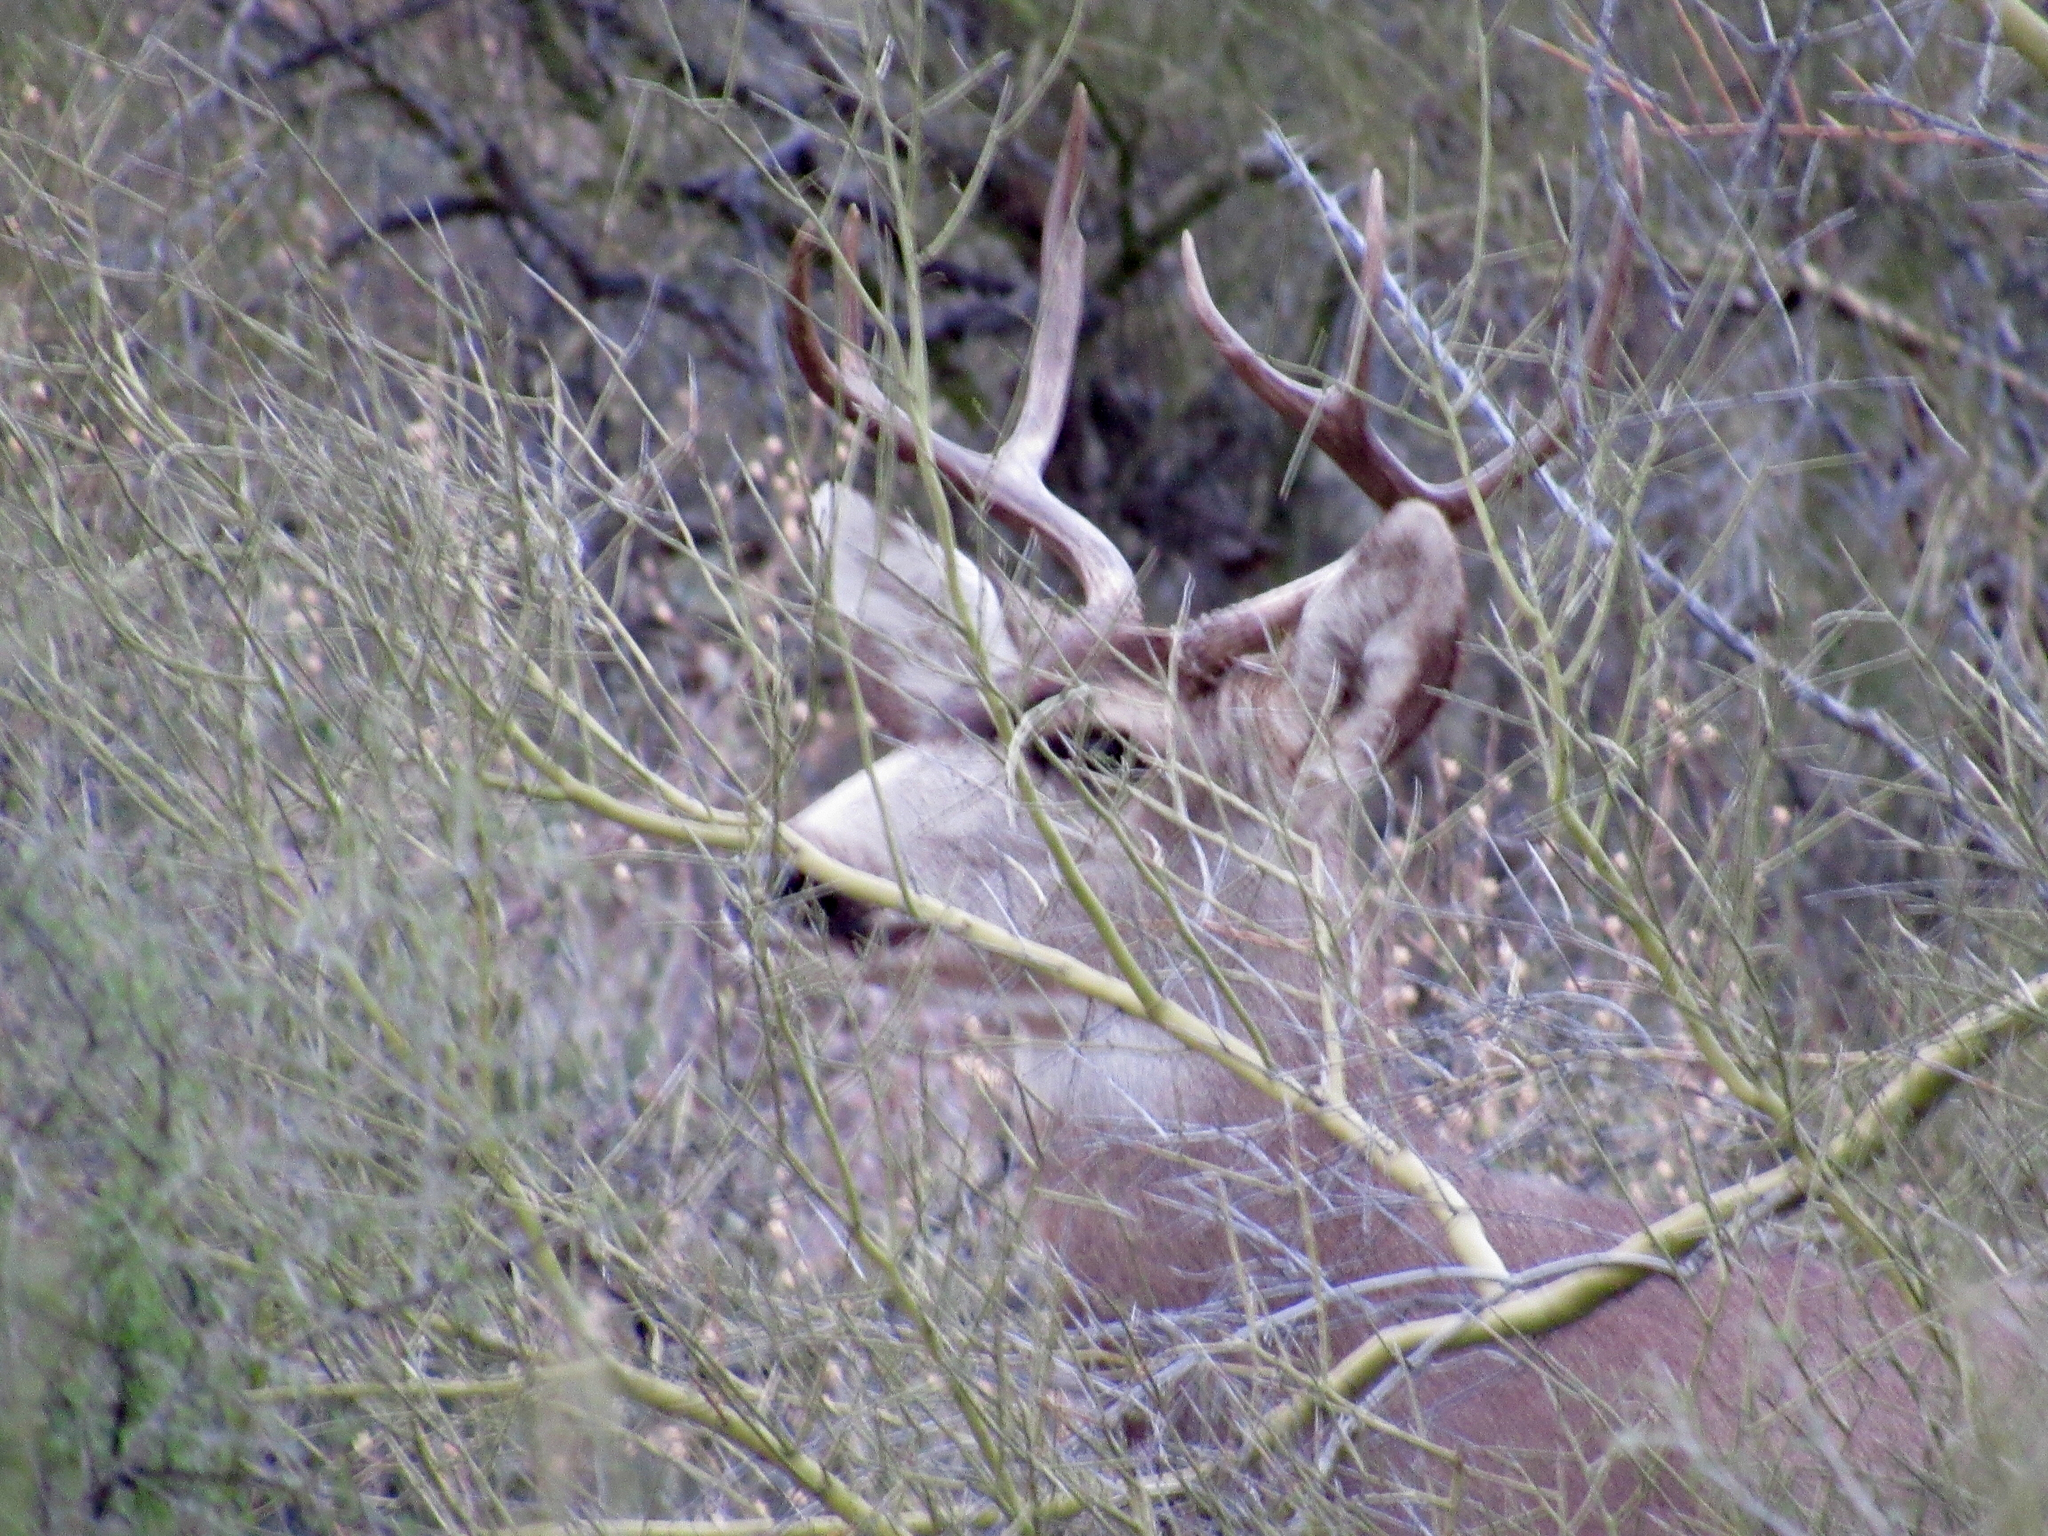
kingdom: Animalia
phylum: Chordata
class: Mammalia
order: Artiodactyla
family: Cervidae
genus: Odocoileus
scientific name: Odocoileus hemionus
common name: Mule deer
